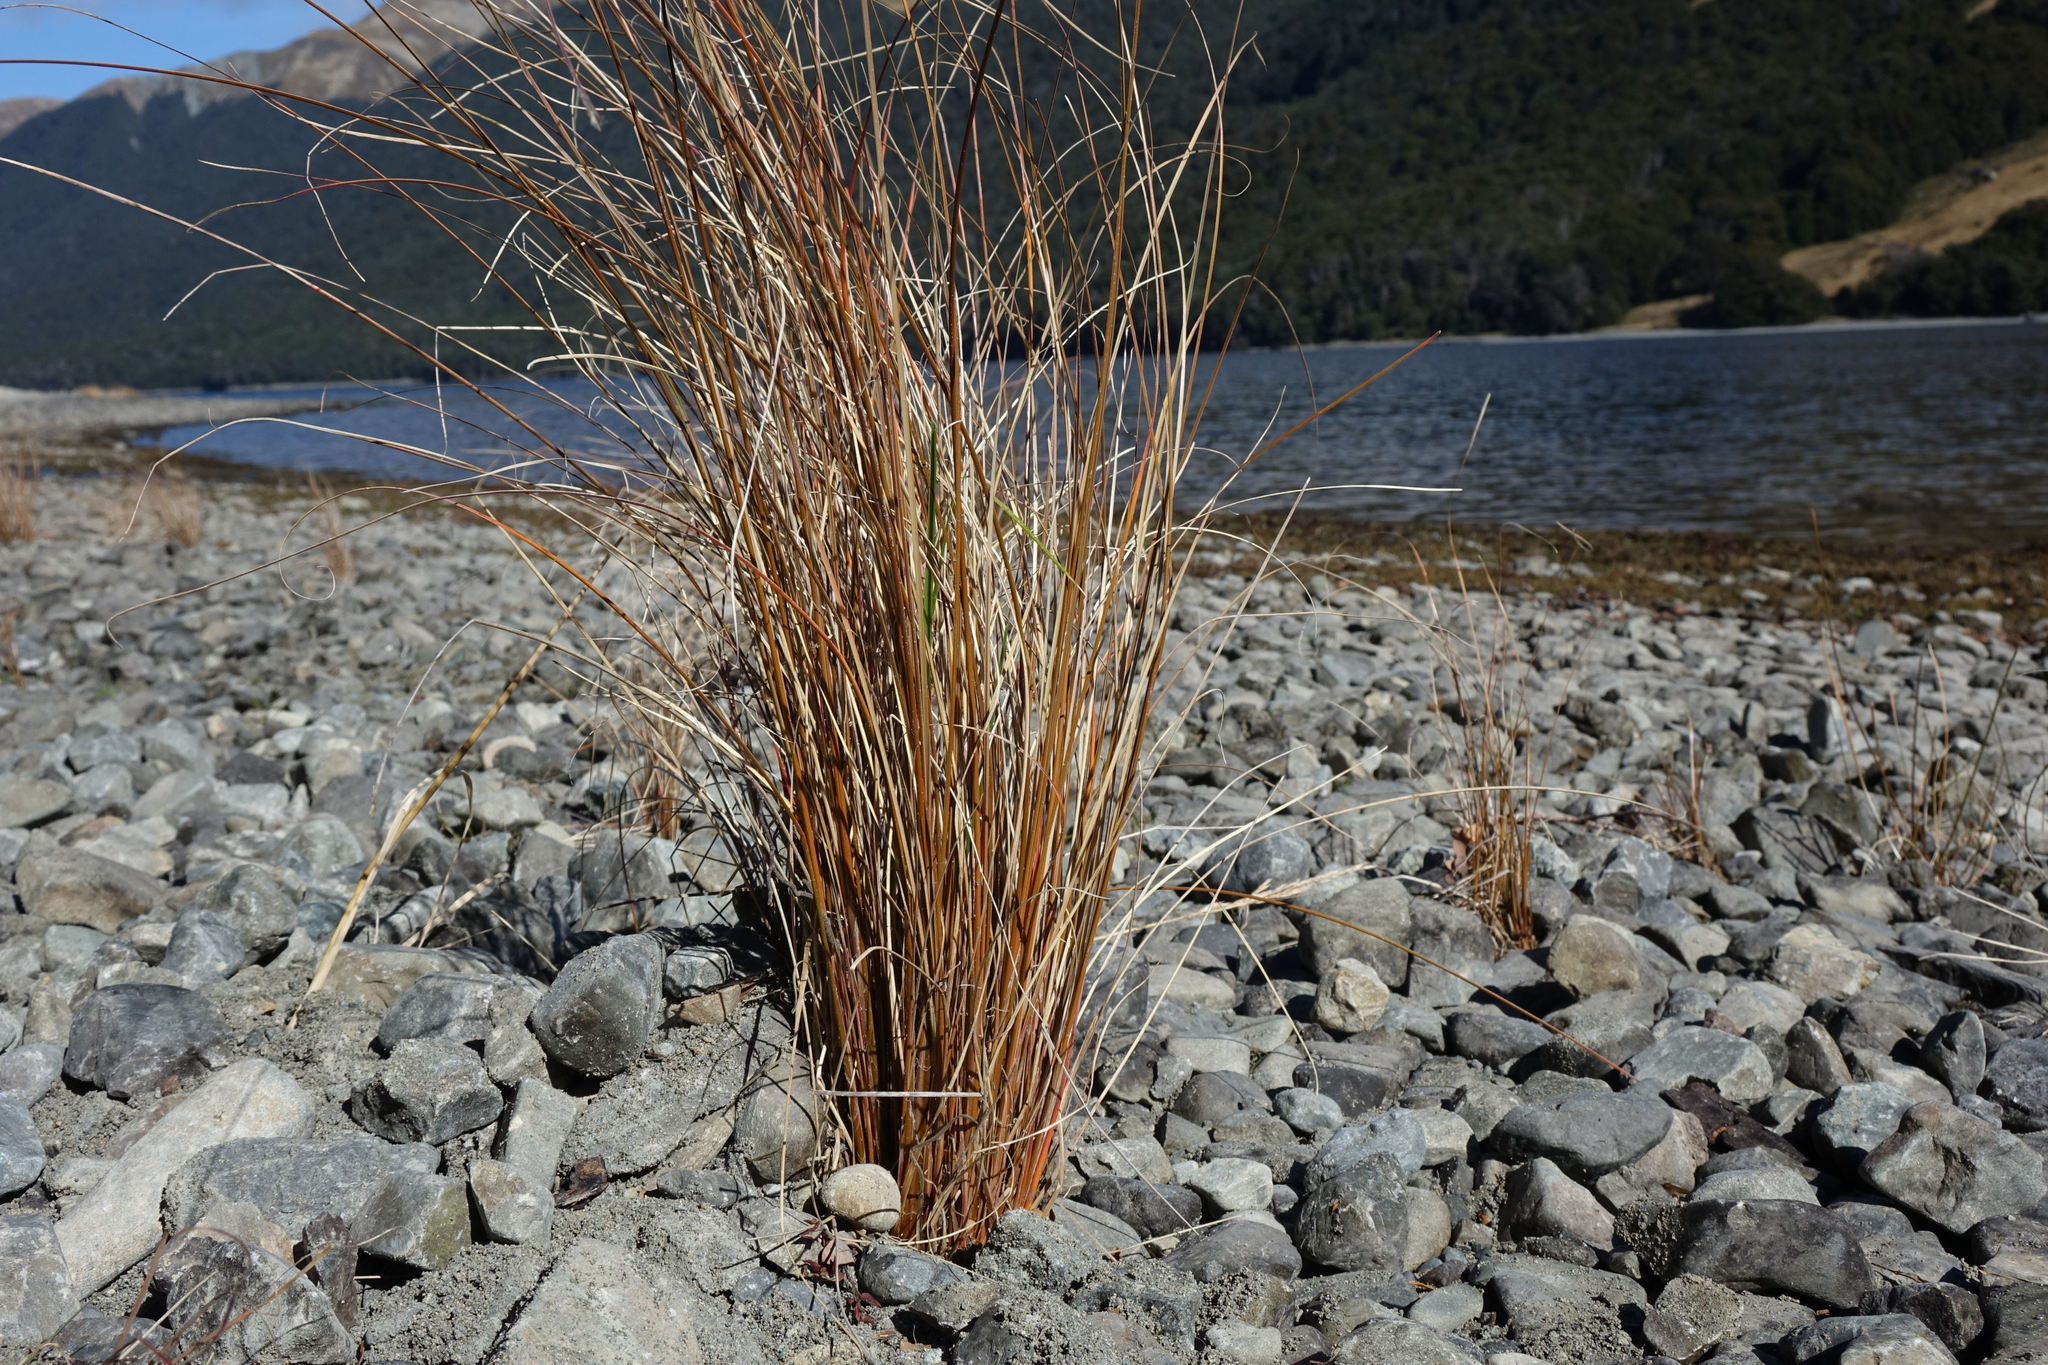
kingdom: Plantae
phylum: Tracheophyta
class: Liliopsida
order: Poales
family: Cyperaceae
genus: Carex
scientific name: Carex buchananii
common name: Leatherleaf sedge
